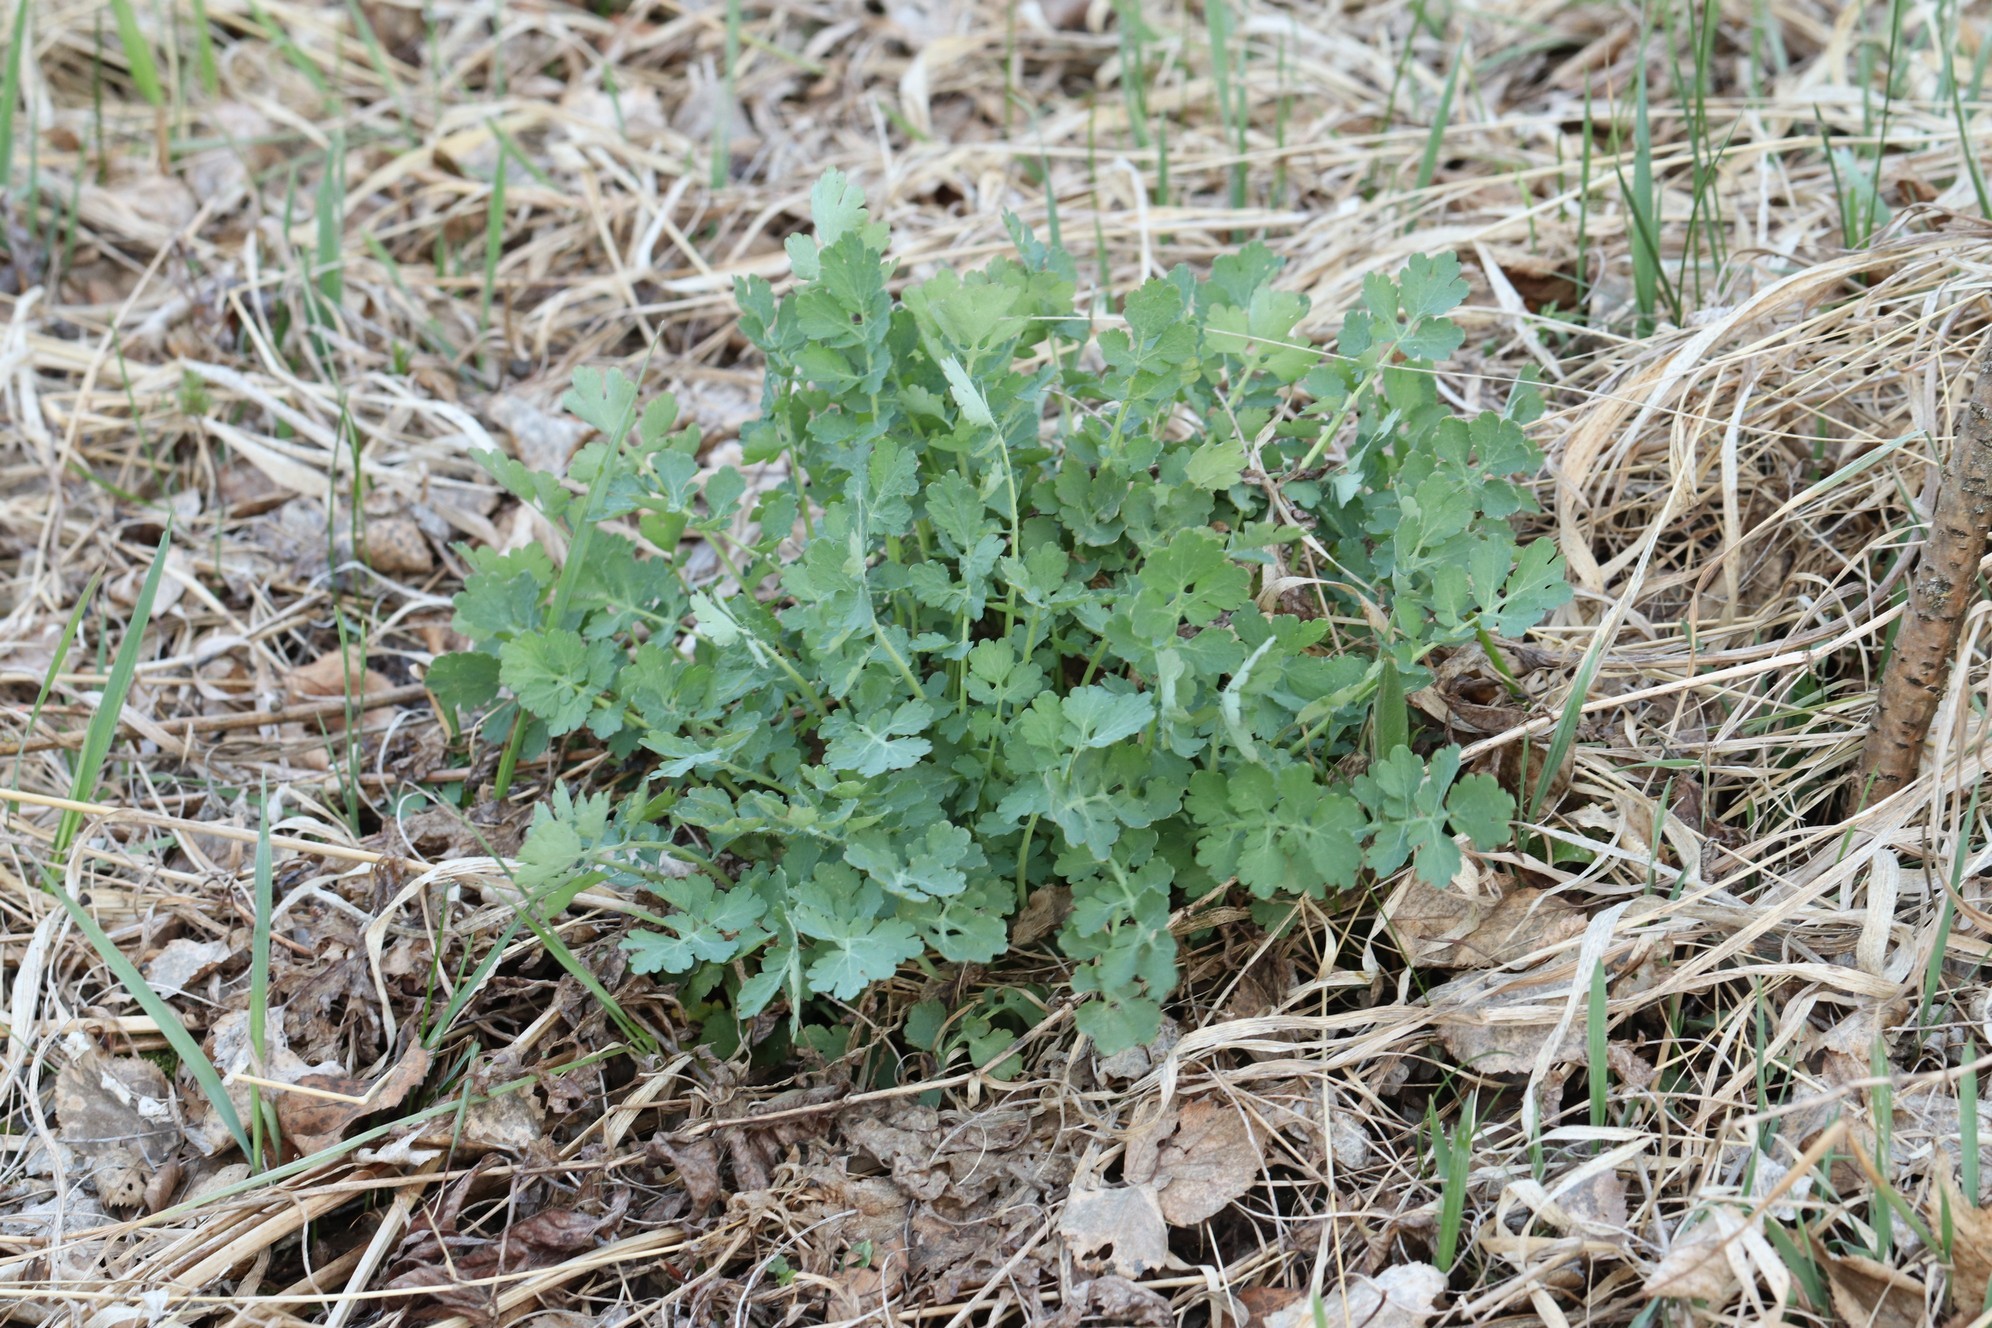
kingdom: Plantae
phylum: Tracheophyta
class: Magnoliopsida
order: Ranunculales
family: Papaveraceae
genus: Chelidonium
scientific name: Chelidonium majus
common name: Greater celandine
